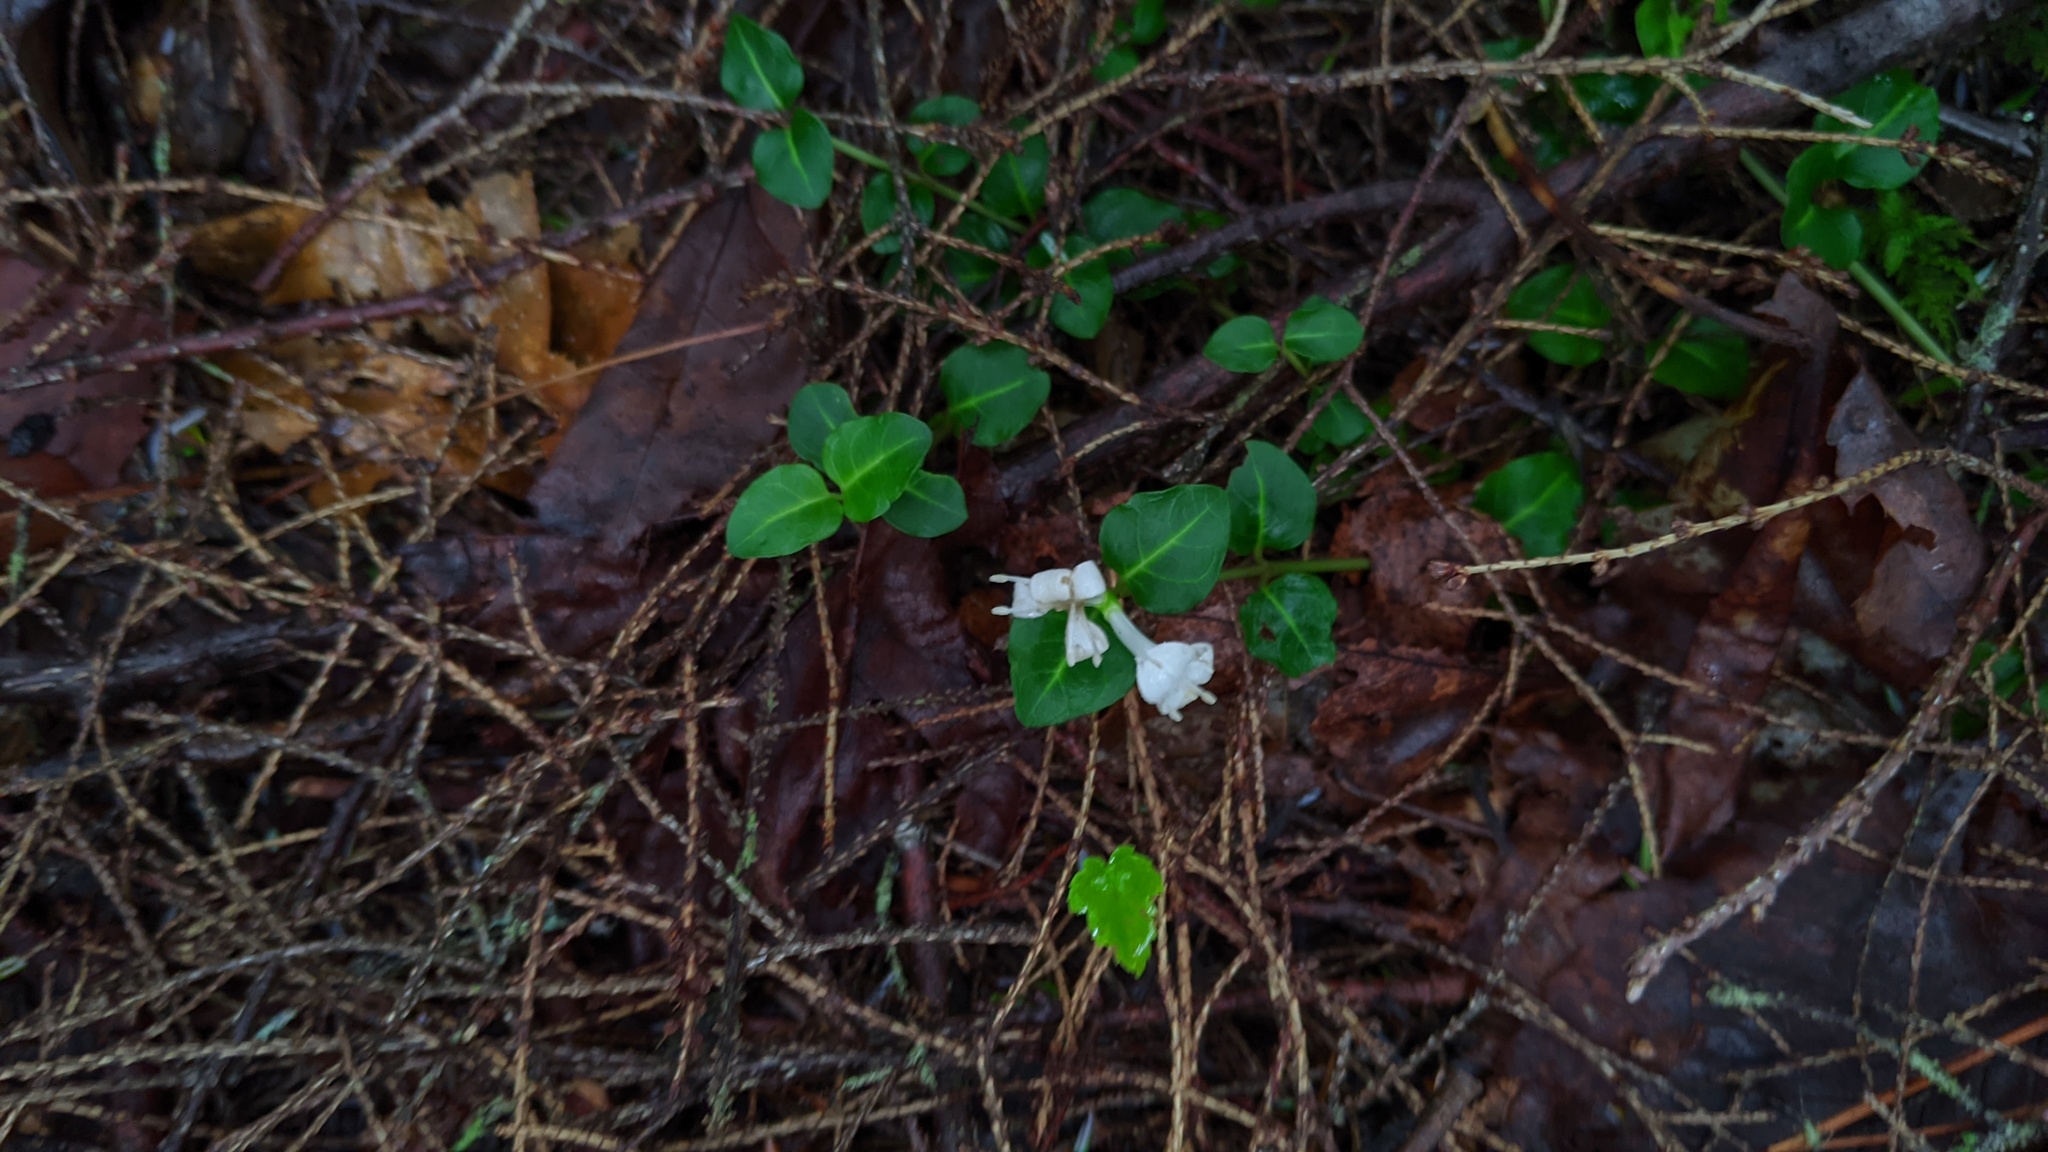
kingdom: Plantae
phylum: Tracheophyta
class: Magnoliopsida
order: Gentianales
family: Rubiaceae
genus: Mitchella
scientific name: Mitchella repens
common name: Partridge-berry
